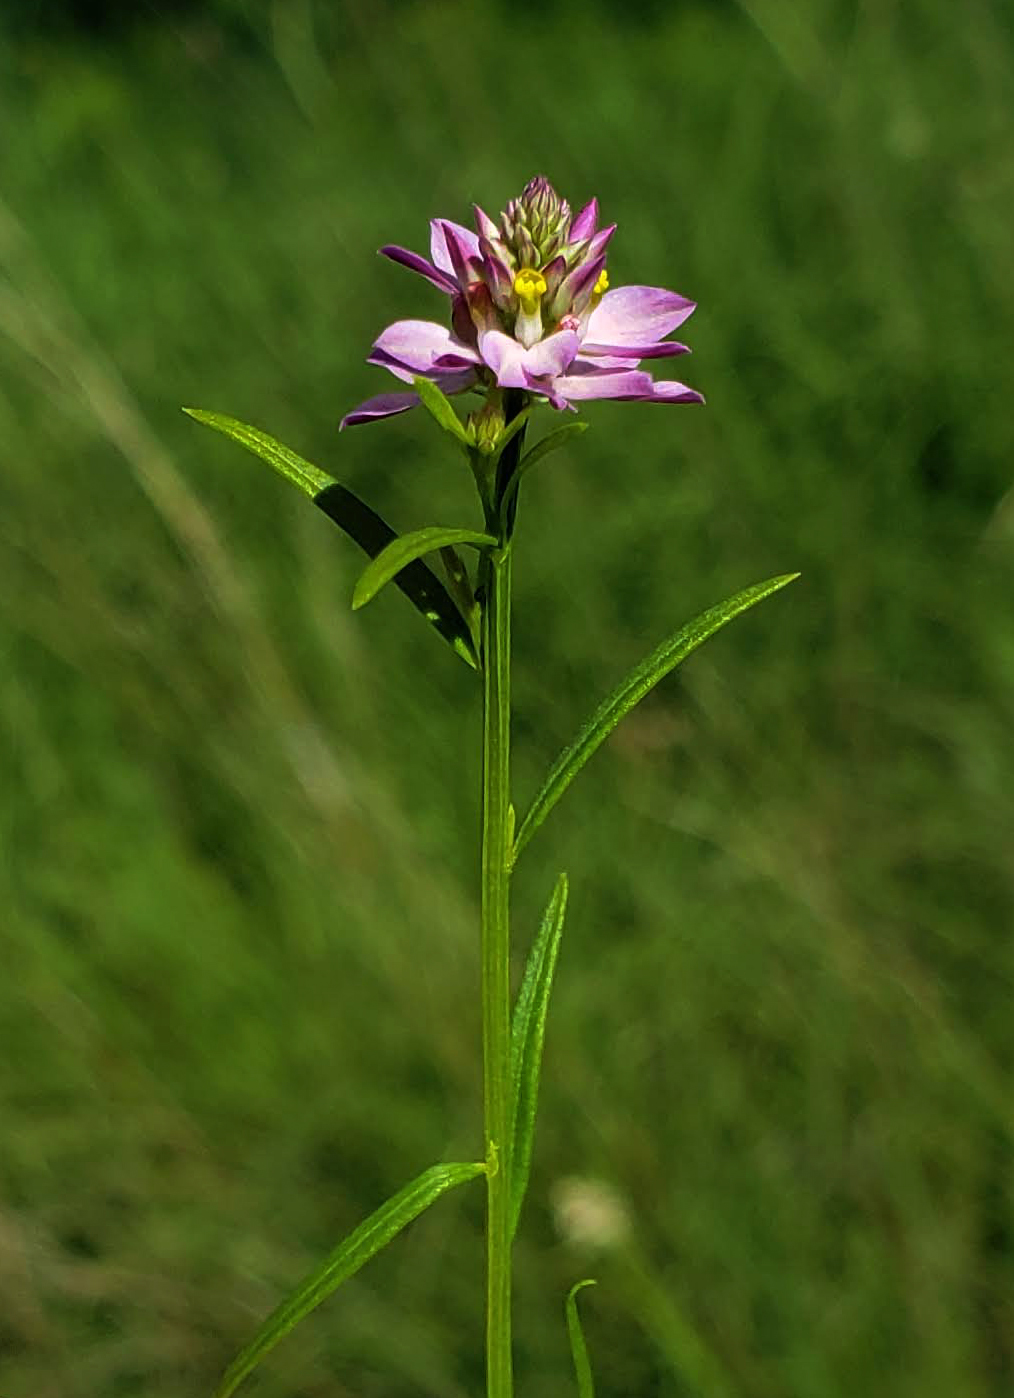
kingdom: Plantae
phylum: Tracheophyta
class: Magnoliopsida
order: Fabales
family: Polygalaceae
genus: Polygala
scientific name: Polygala sanguinea
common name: Blood milkwort
